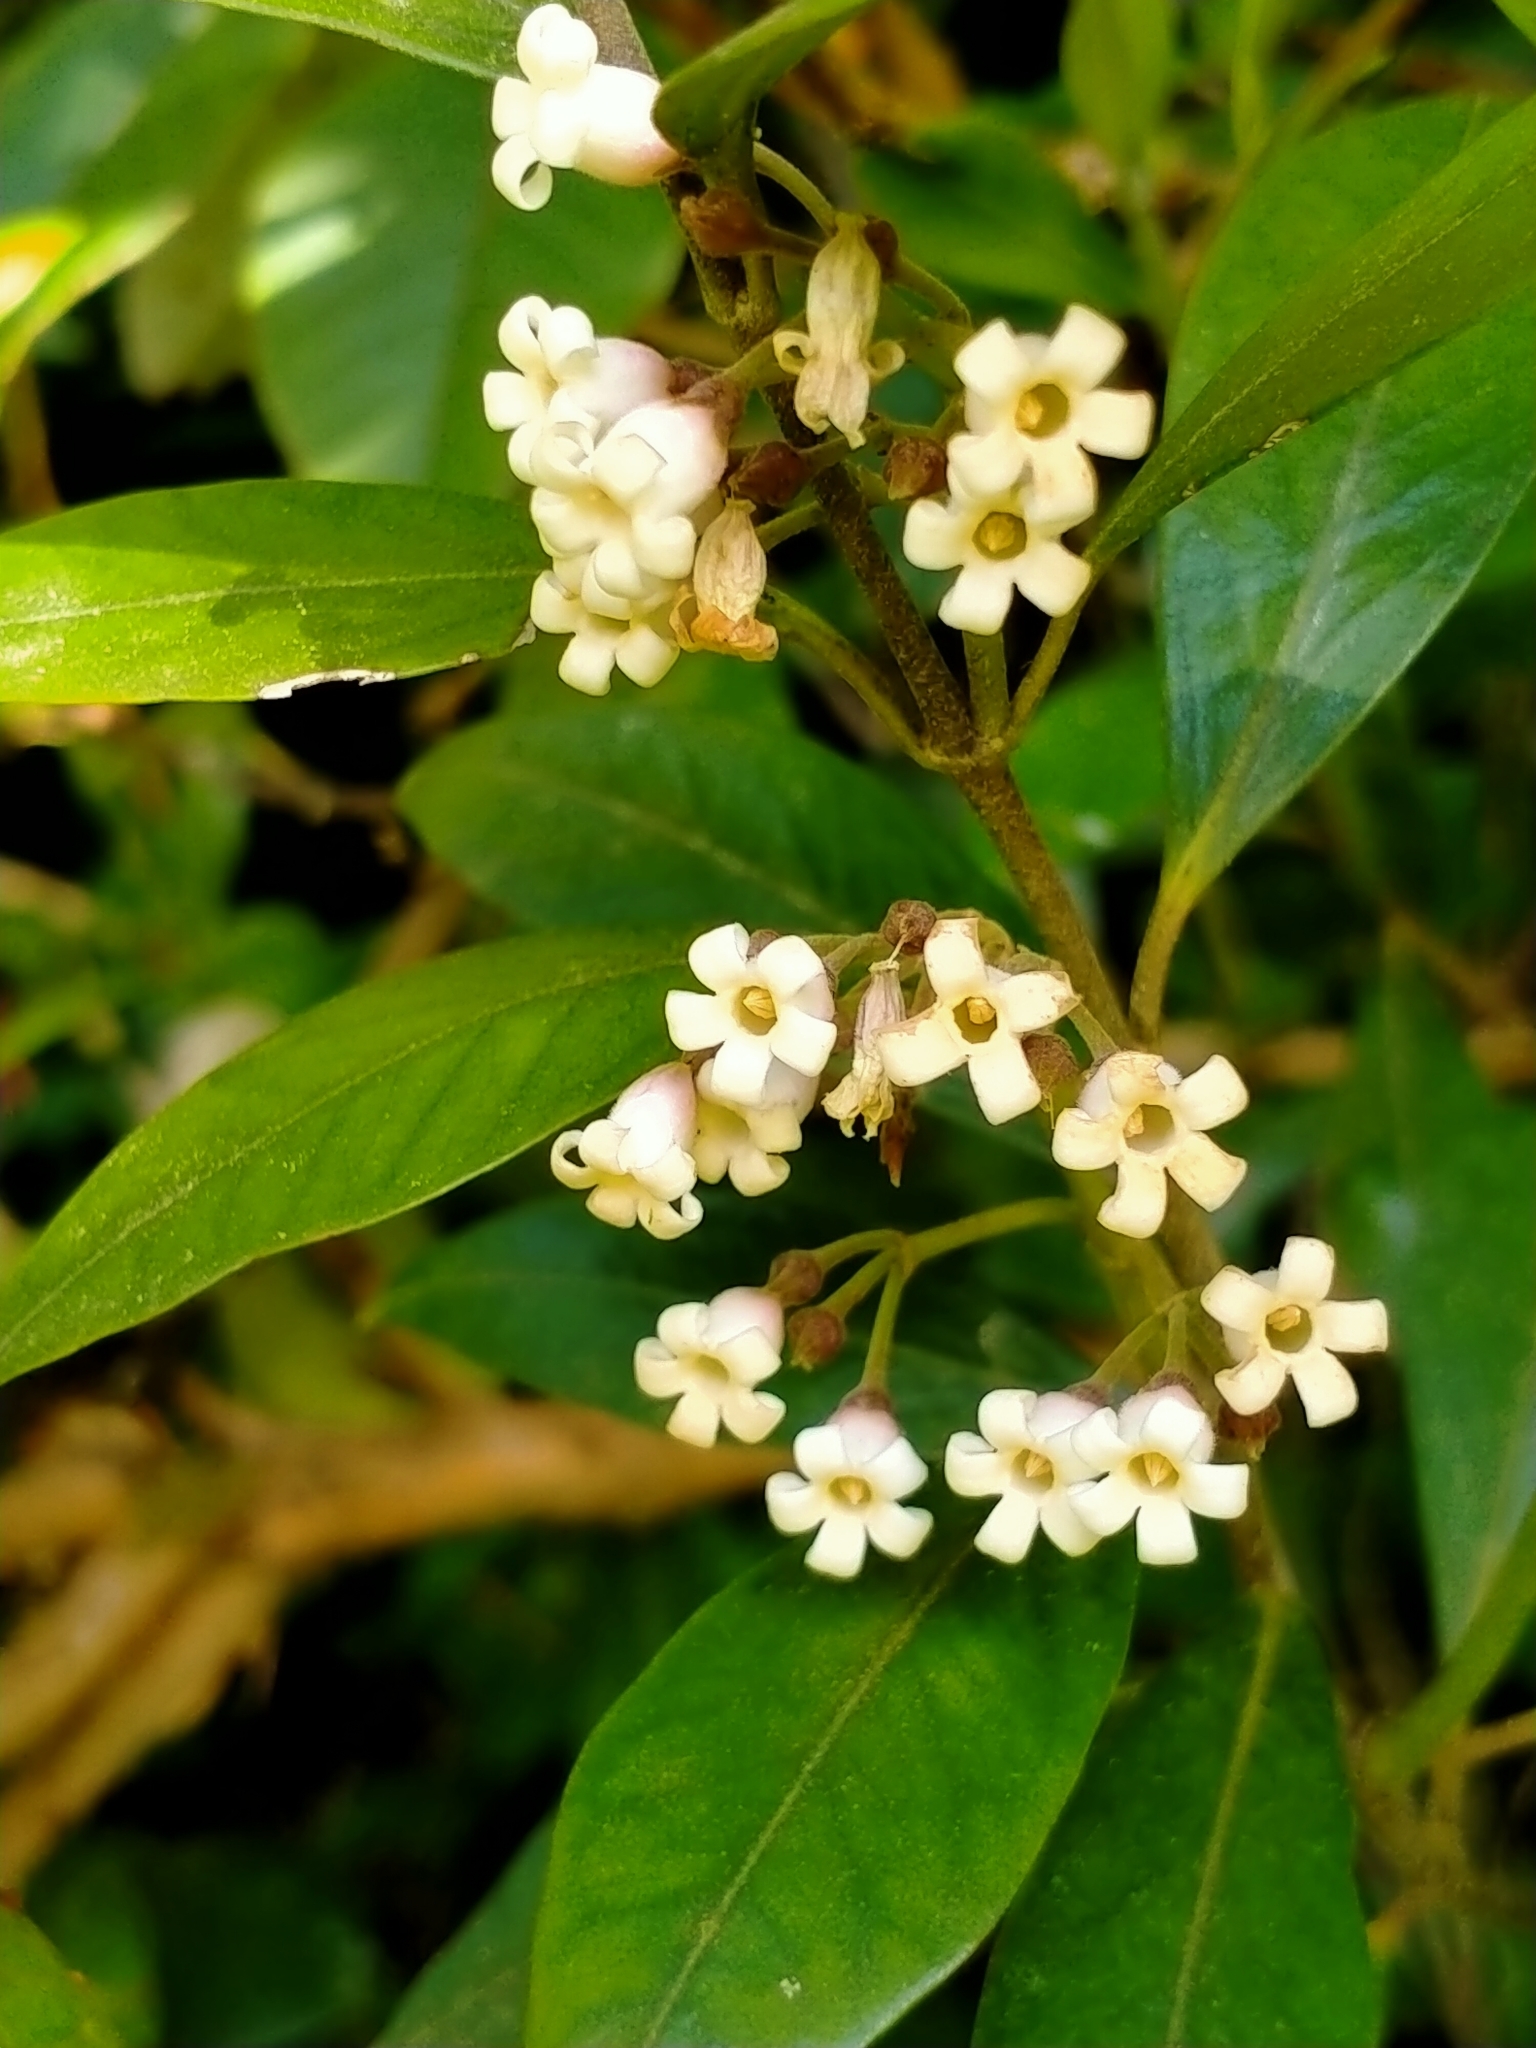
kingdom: Plantae
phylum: Tracheophyta
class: Magnoliopsida
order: Gentianales
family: Apocynaceae
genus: Parsonsia
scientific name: Parsonsia heterophylla
